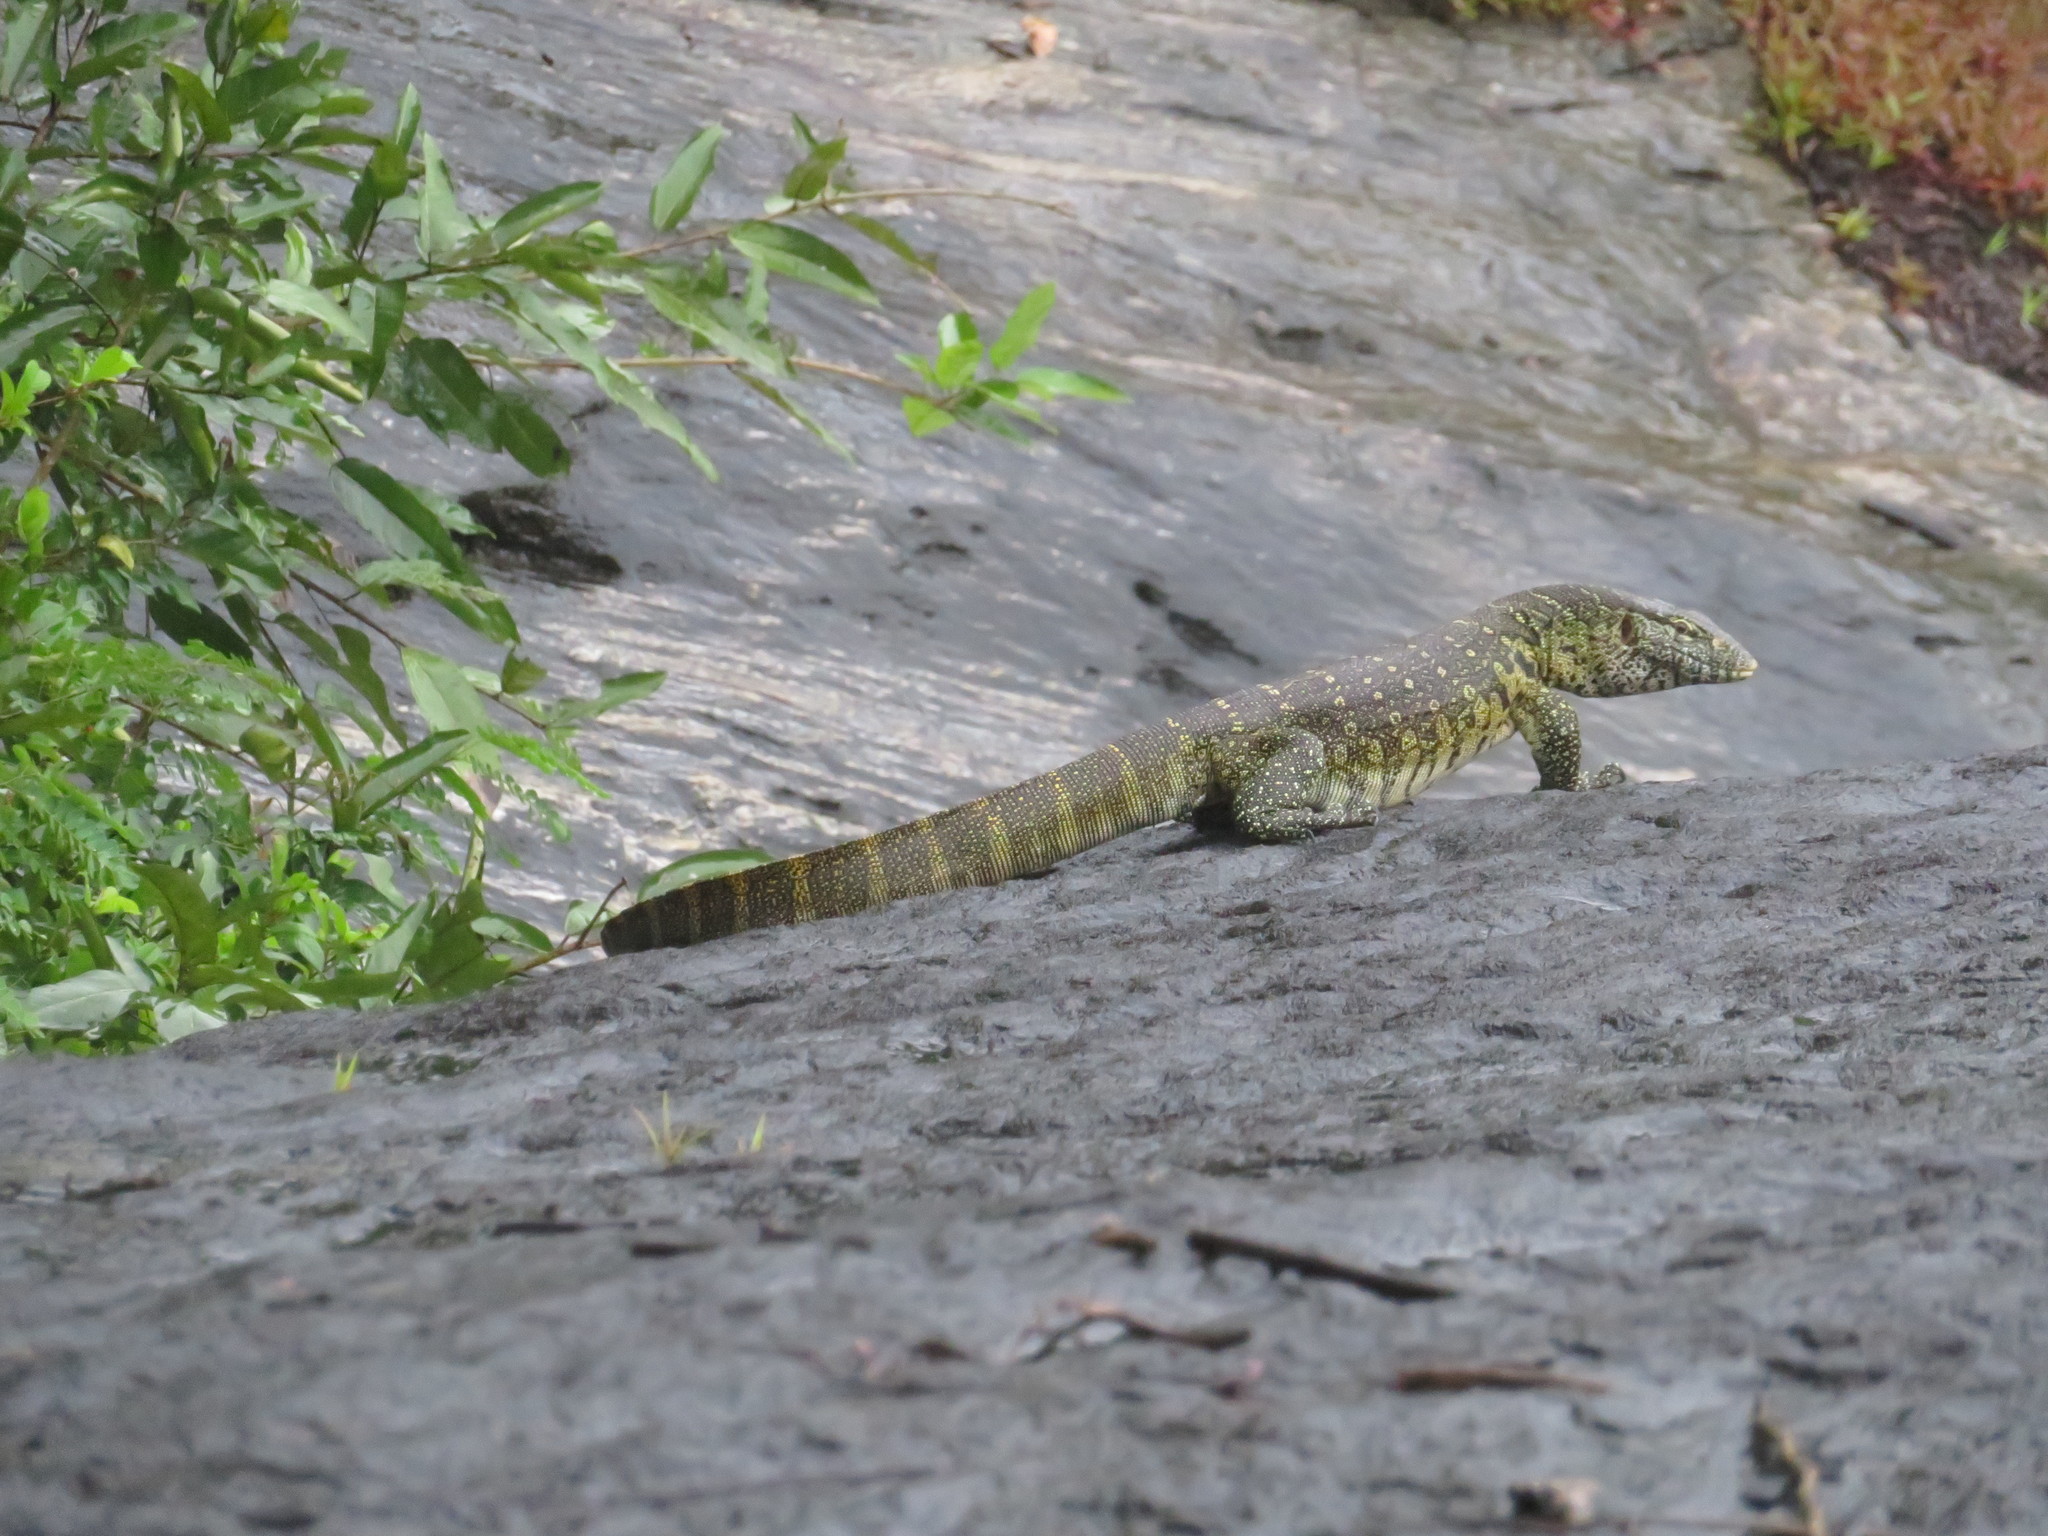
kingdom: Animalia
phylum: Chordata
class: Squamata
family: Varanidae
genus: Varanus
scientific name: Varanus niloticus
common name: Nile monitor
